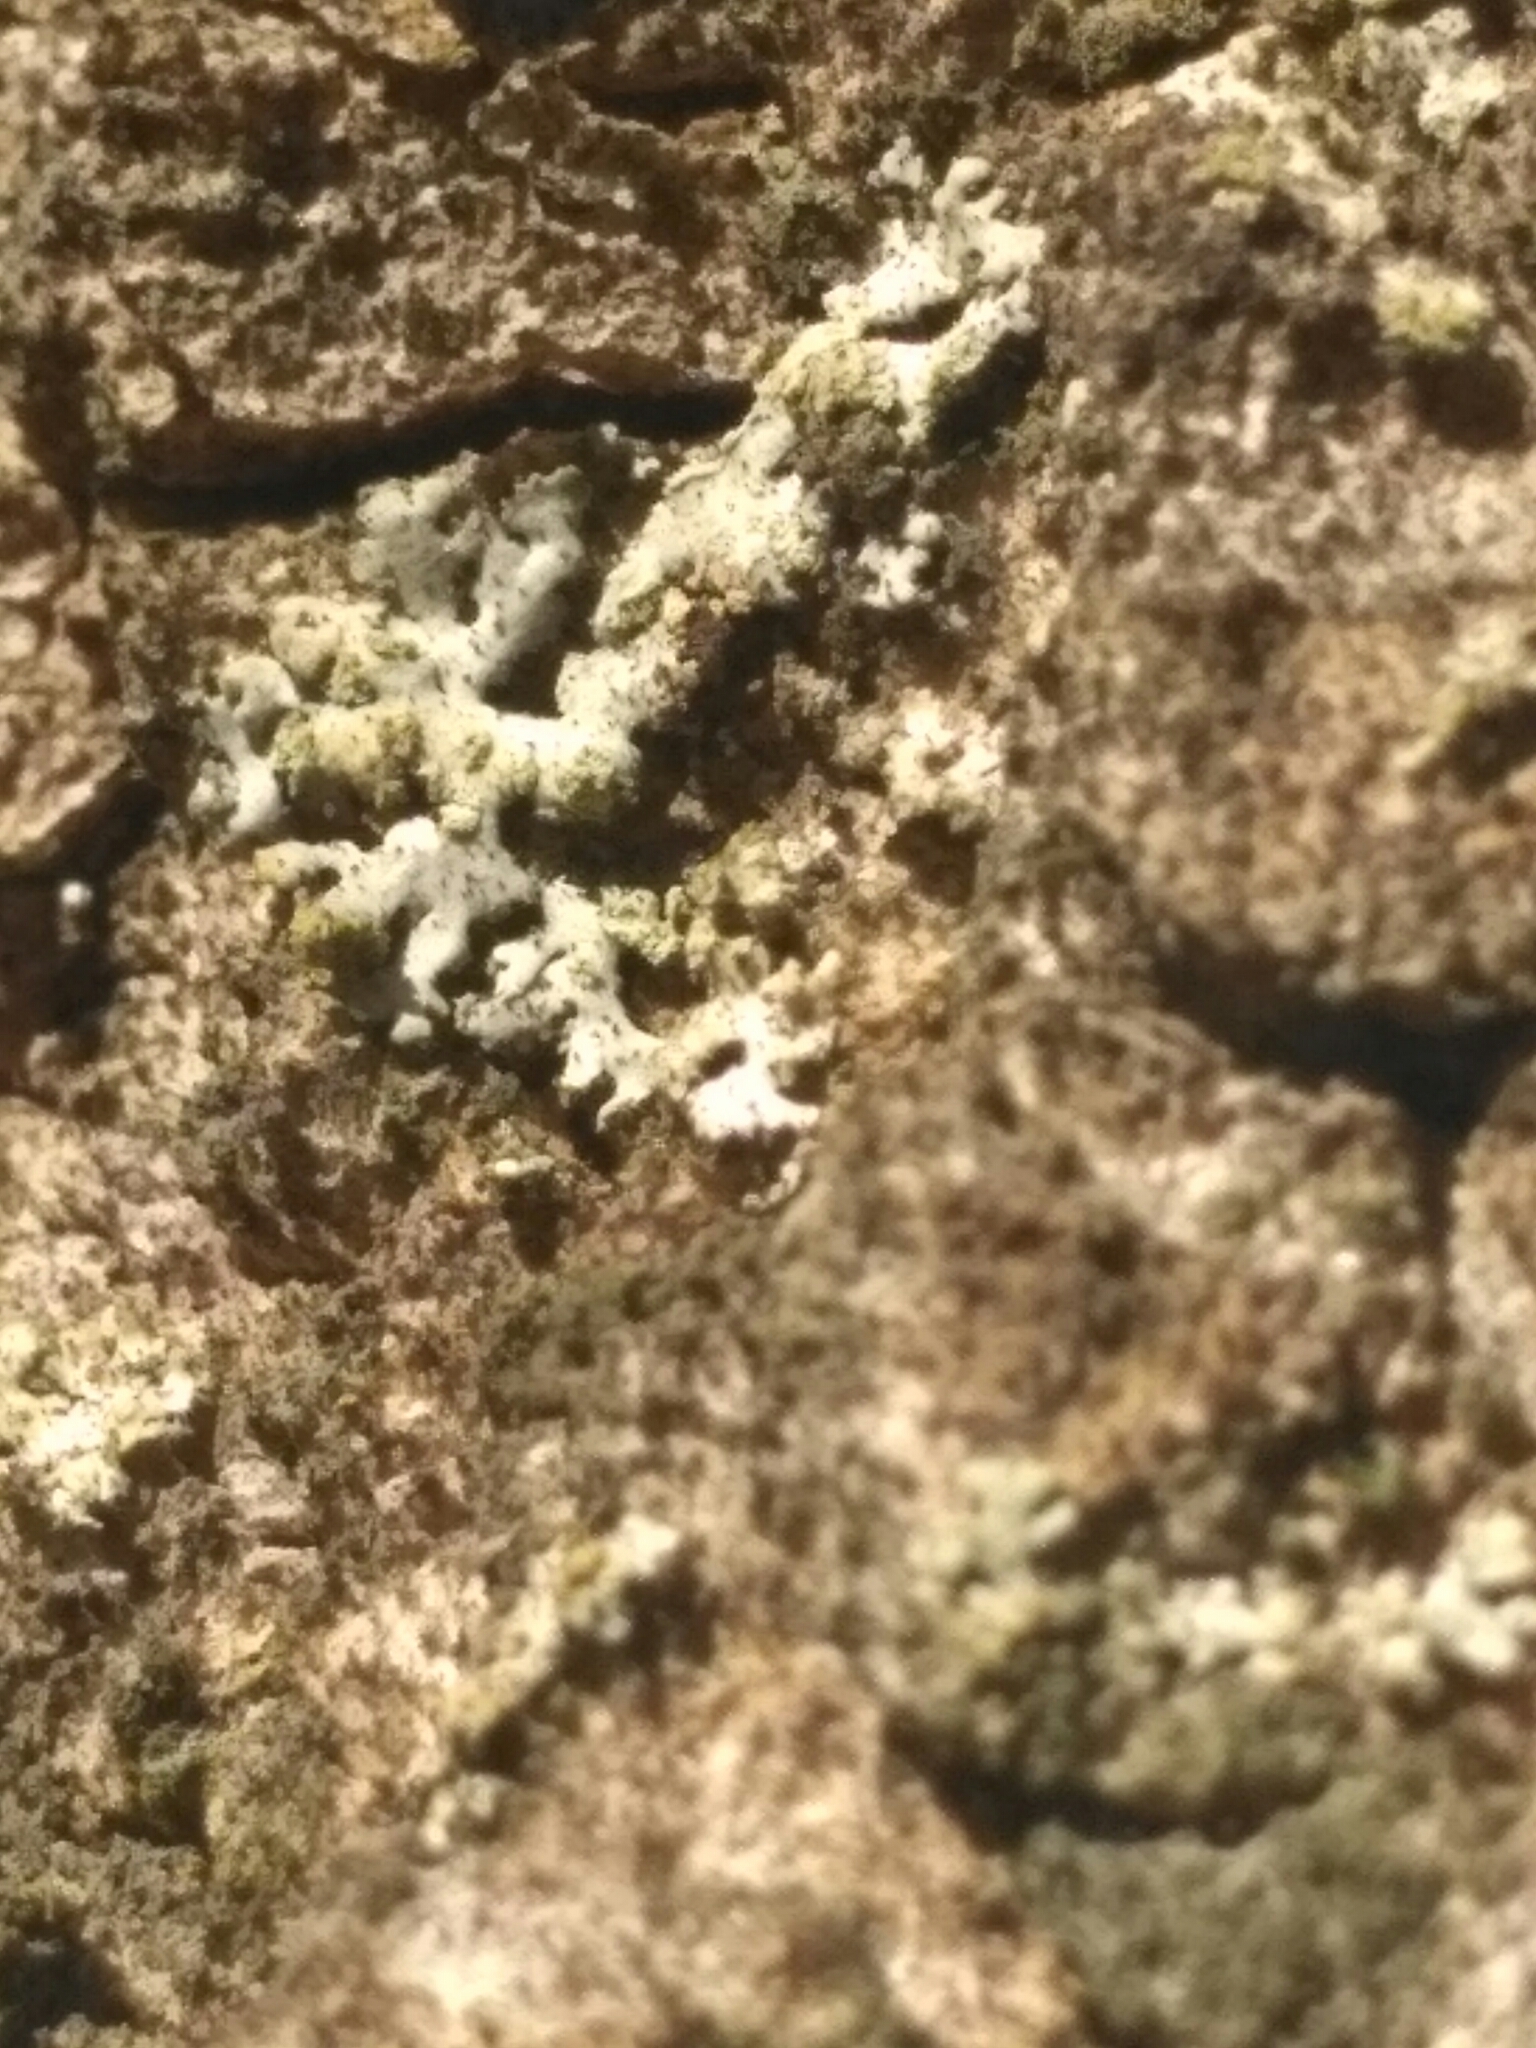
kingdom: Fungi
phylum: Ascomycota
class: Lecanoromycetes
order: Caliciales
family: Physciaceae
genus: Phaeophyscia
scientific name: Phaeophyscia orbicularis
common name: Mealy shadow lichen
